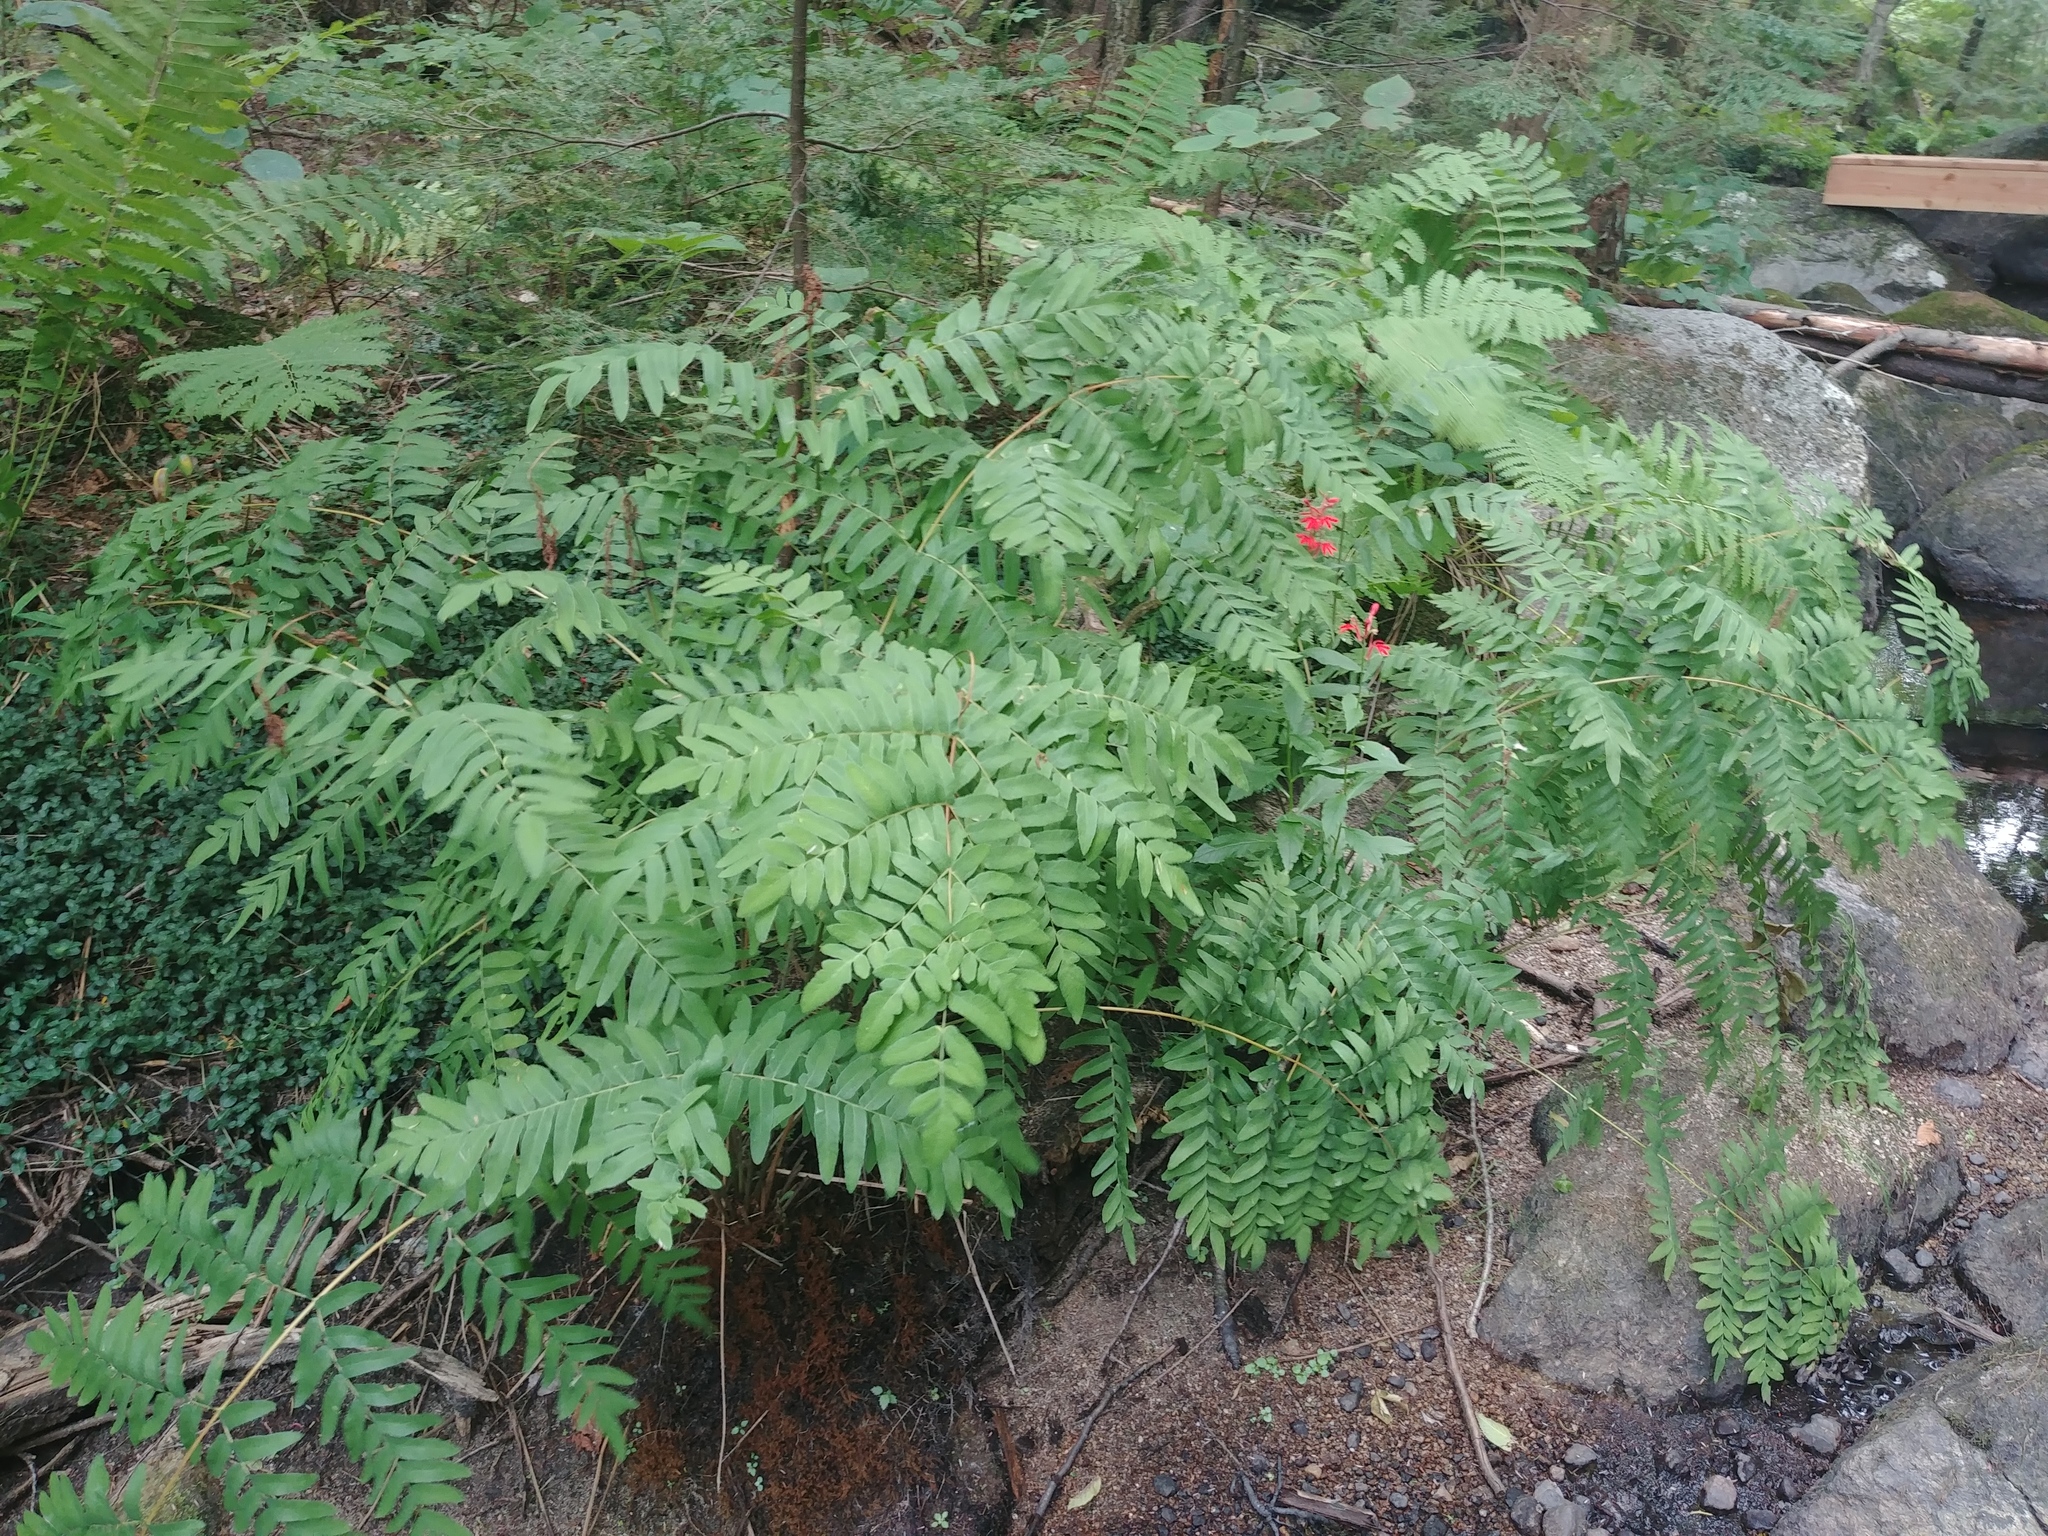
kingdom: Plantae
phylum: Tracheophyta
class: Polypodiopsida
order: Osmundales
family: Osmundaceae
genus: Osmunda
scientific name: Osmunda spectabilis
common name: American royal fern
